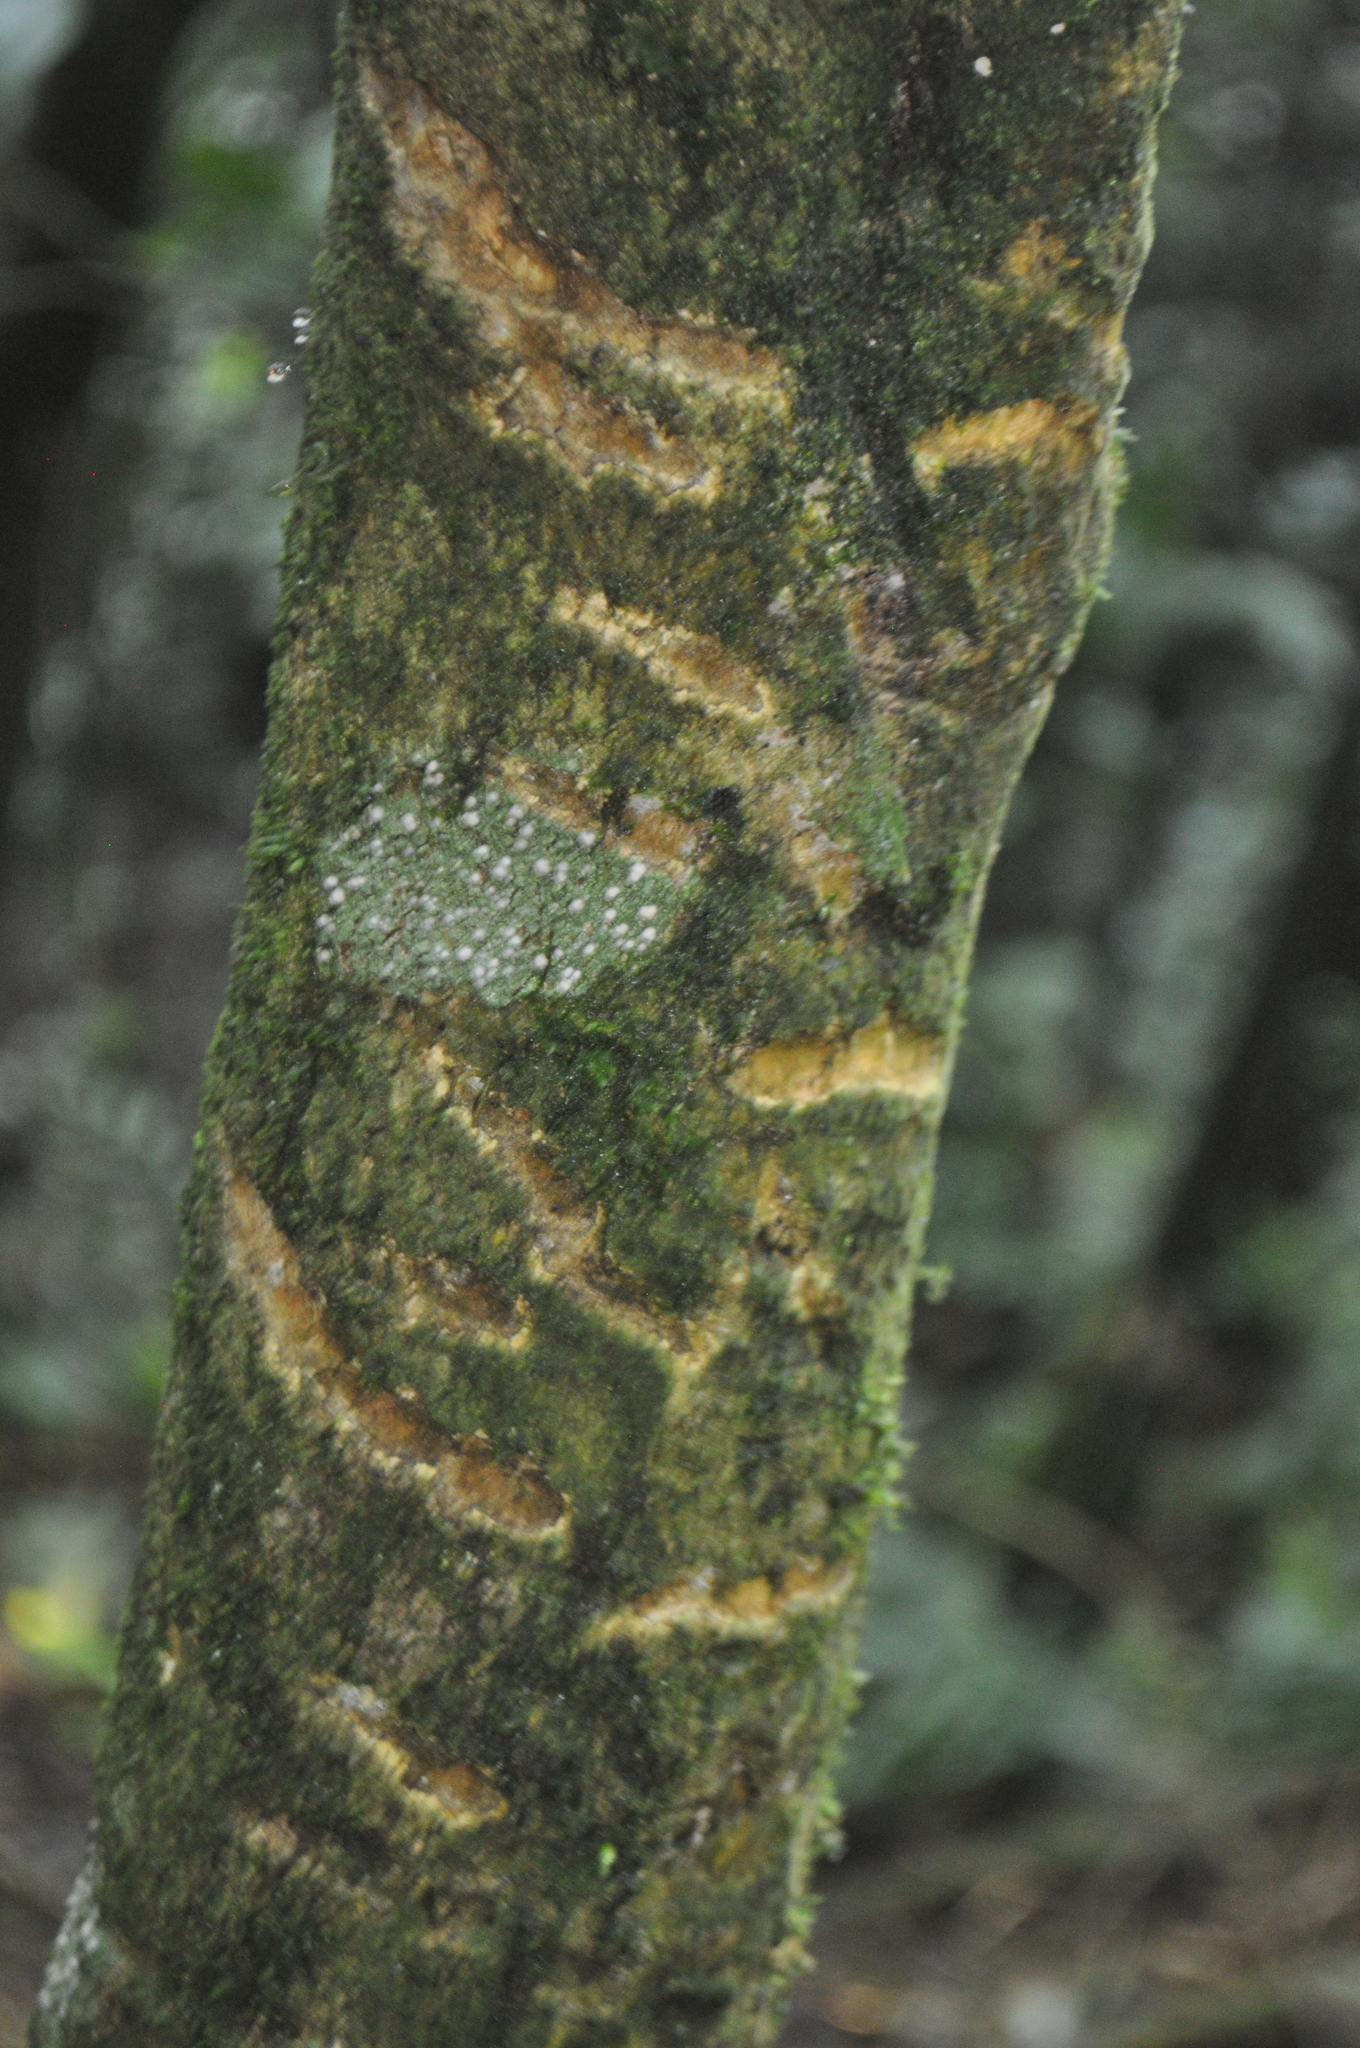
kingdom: Animalia
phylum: Chordata
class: Mammalia
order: Diprotodontia
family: Phalangeridae
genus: Trichosurus
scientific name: Trichosurus vulpecula
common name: Common brushtail
